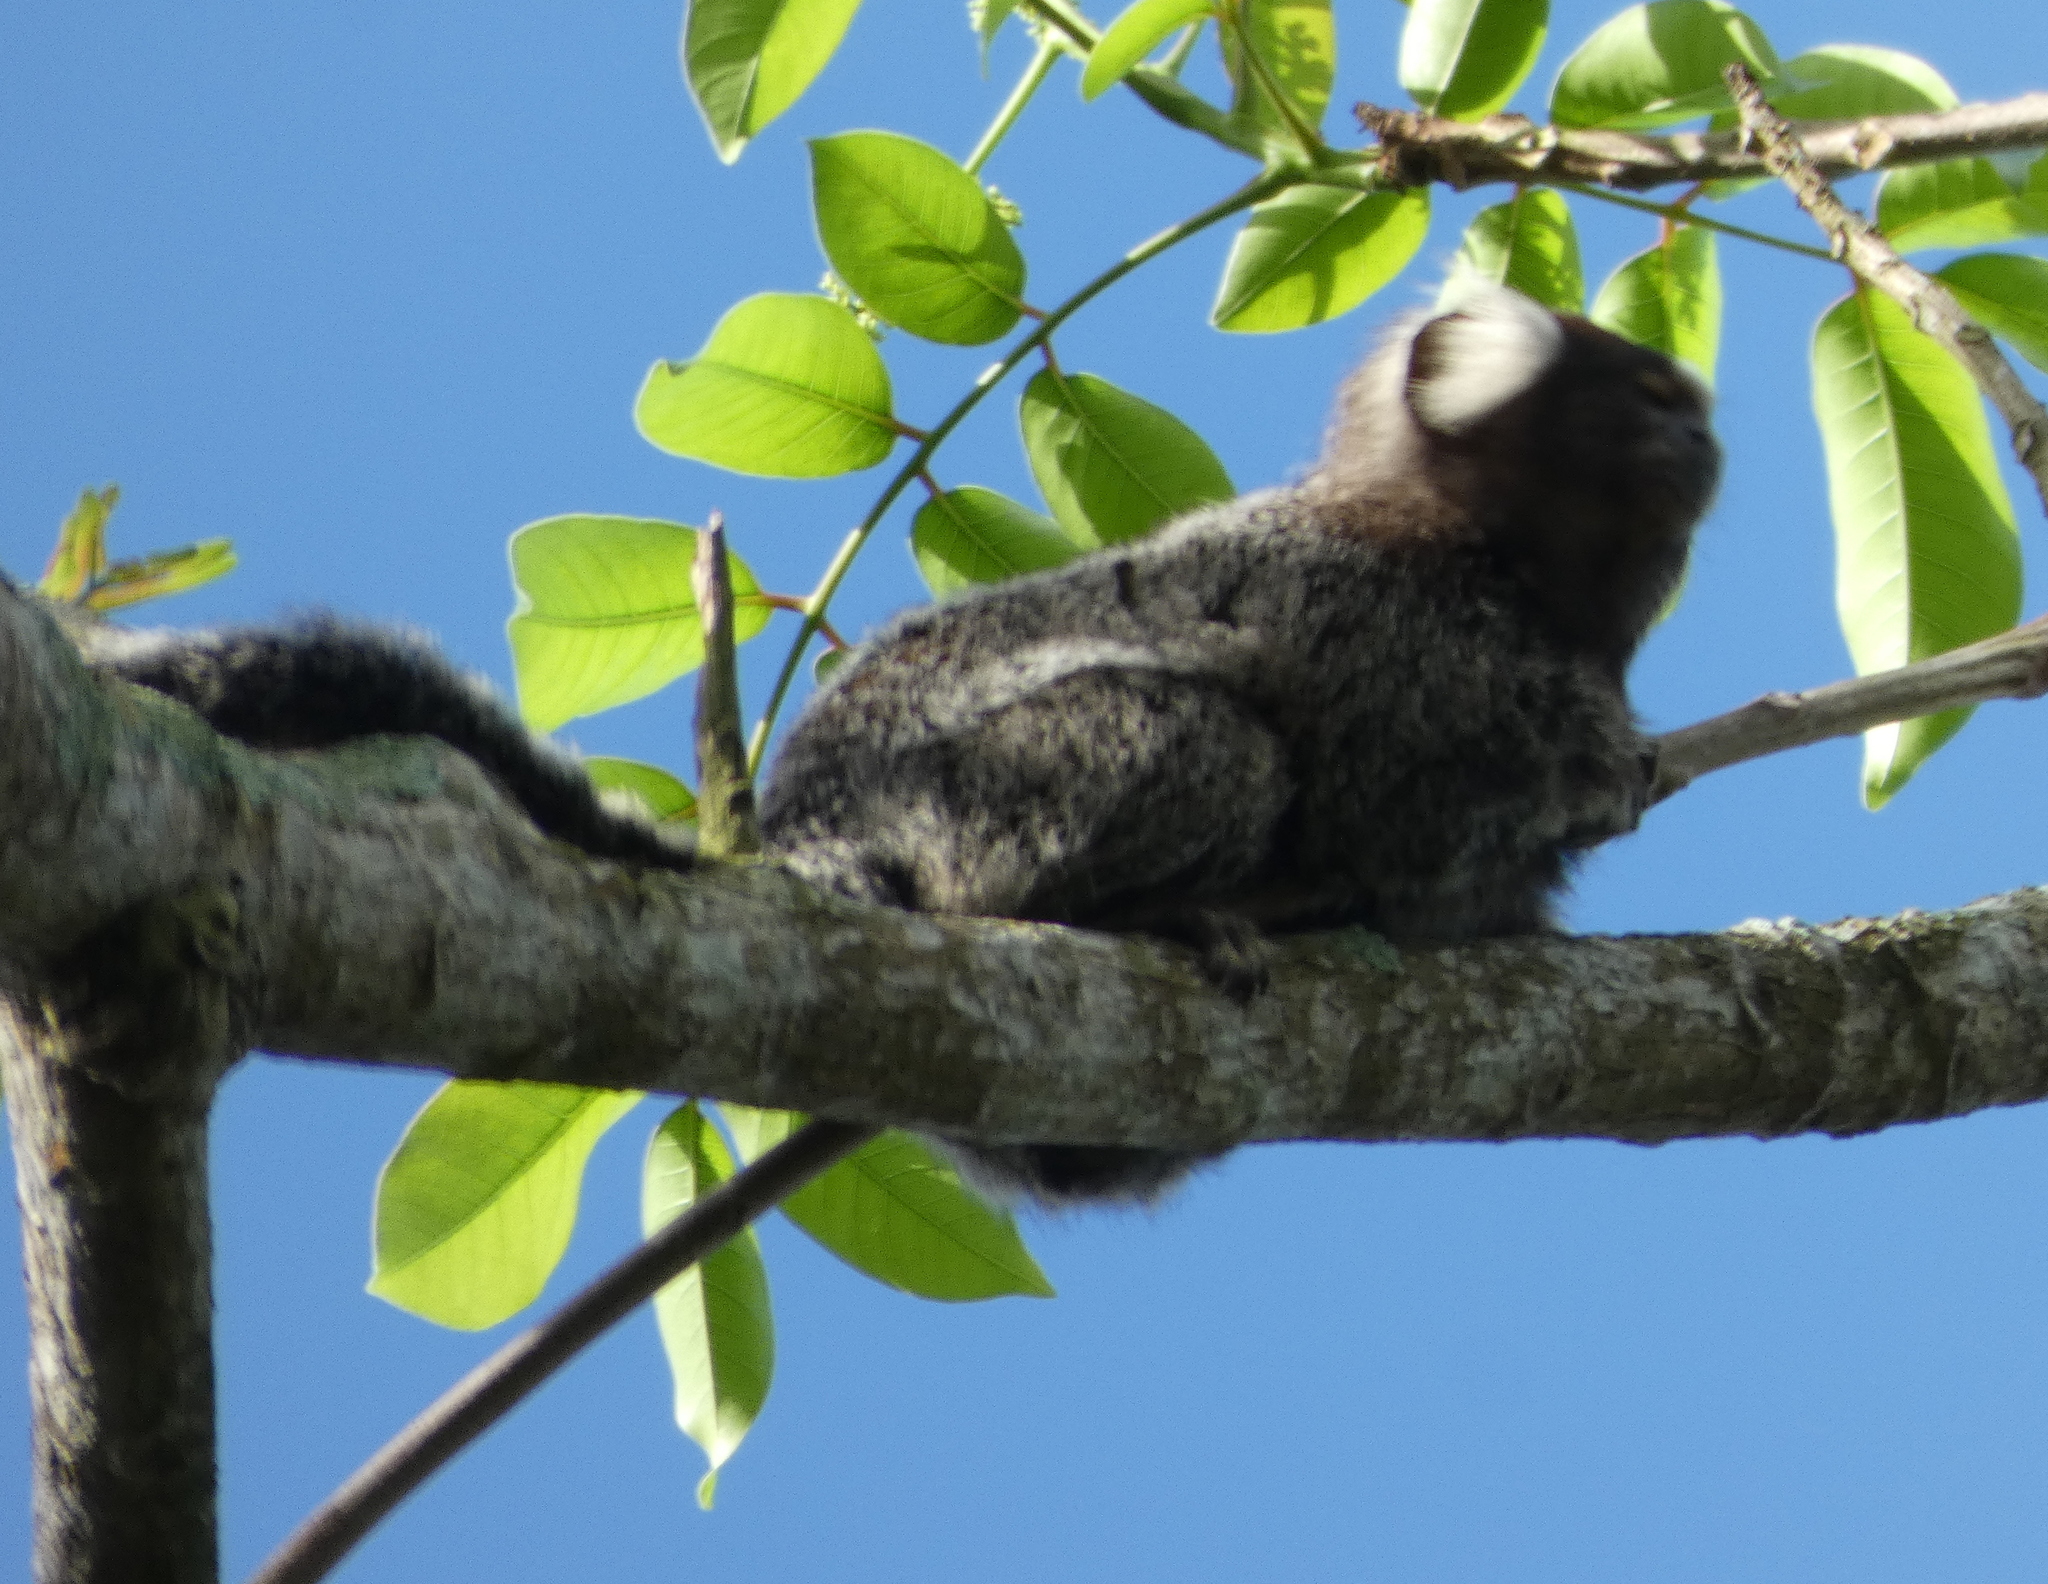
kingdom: Animalia
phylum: Chordata
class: Mammalia
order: Primates
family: Callitrichidae
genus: Callithrix
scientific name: Callithrix jacchus
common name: Common marmoset
